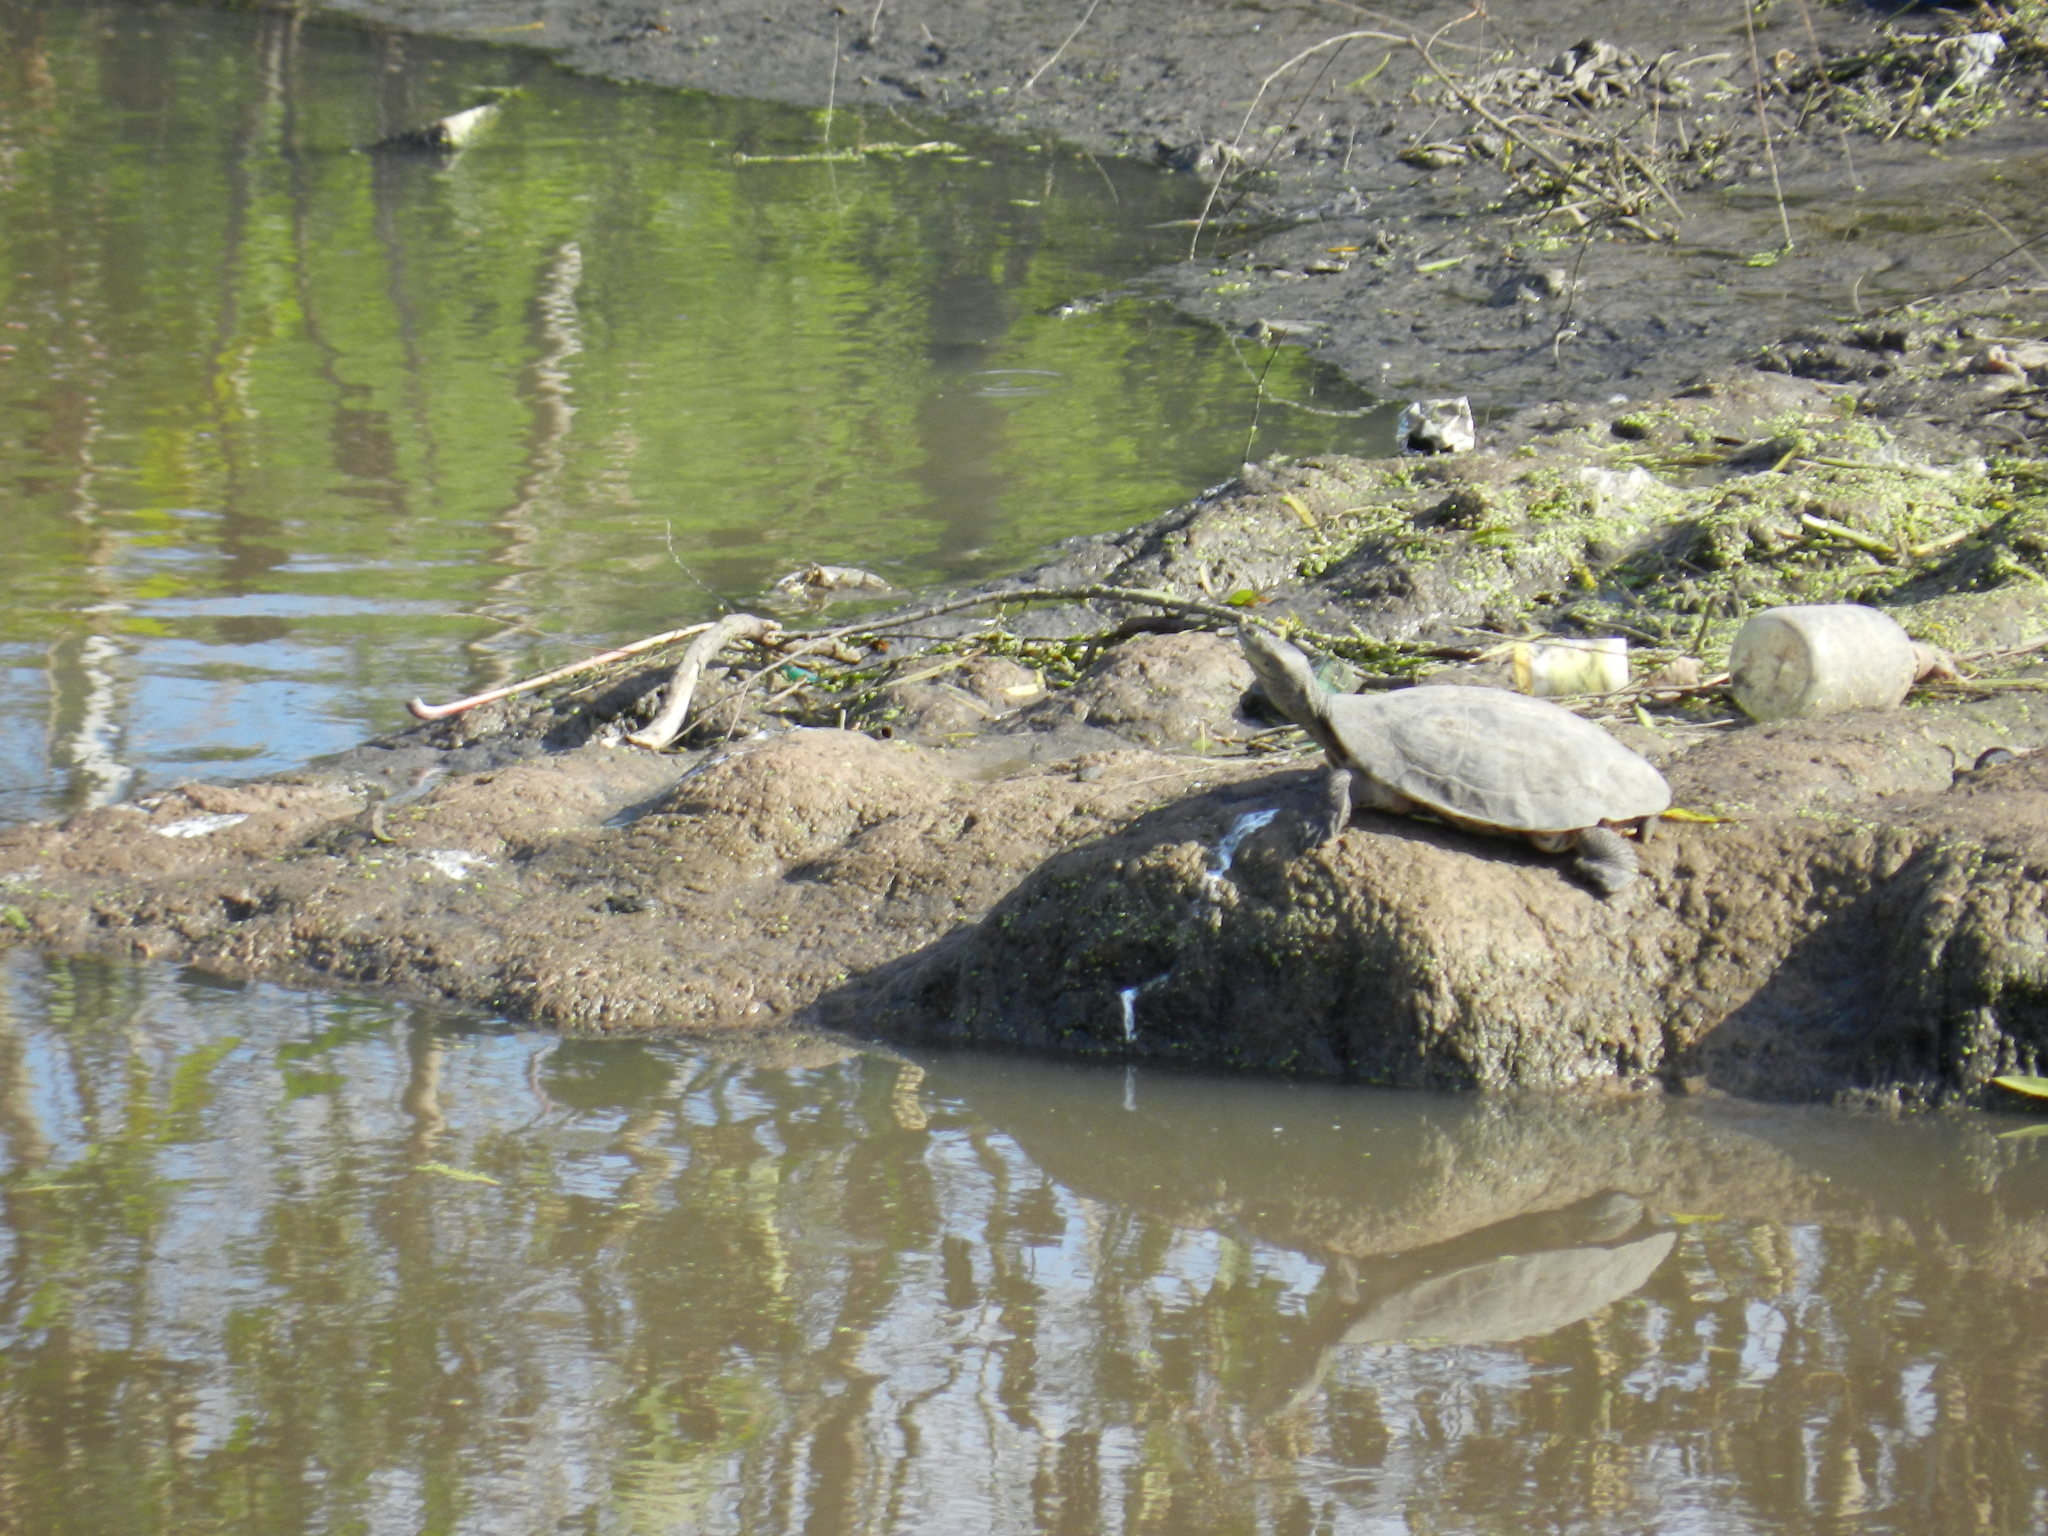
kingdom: Animalia
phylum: Chordata
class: Testudines
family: Chelidae
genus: Phrynops
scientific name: Phrynops hilarii
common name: Side-necked turtle of saint hillaire
